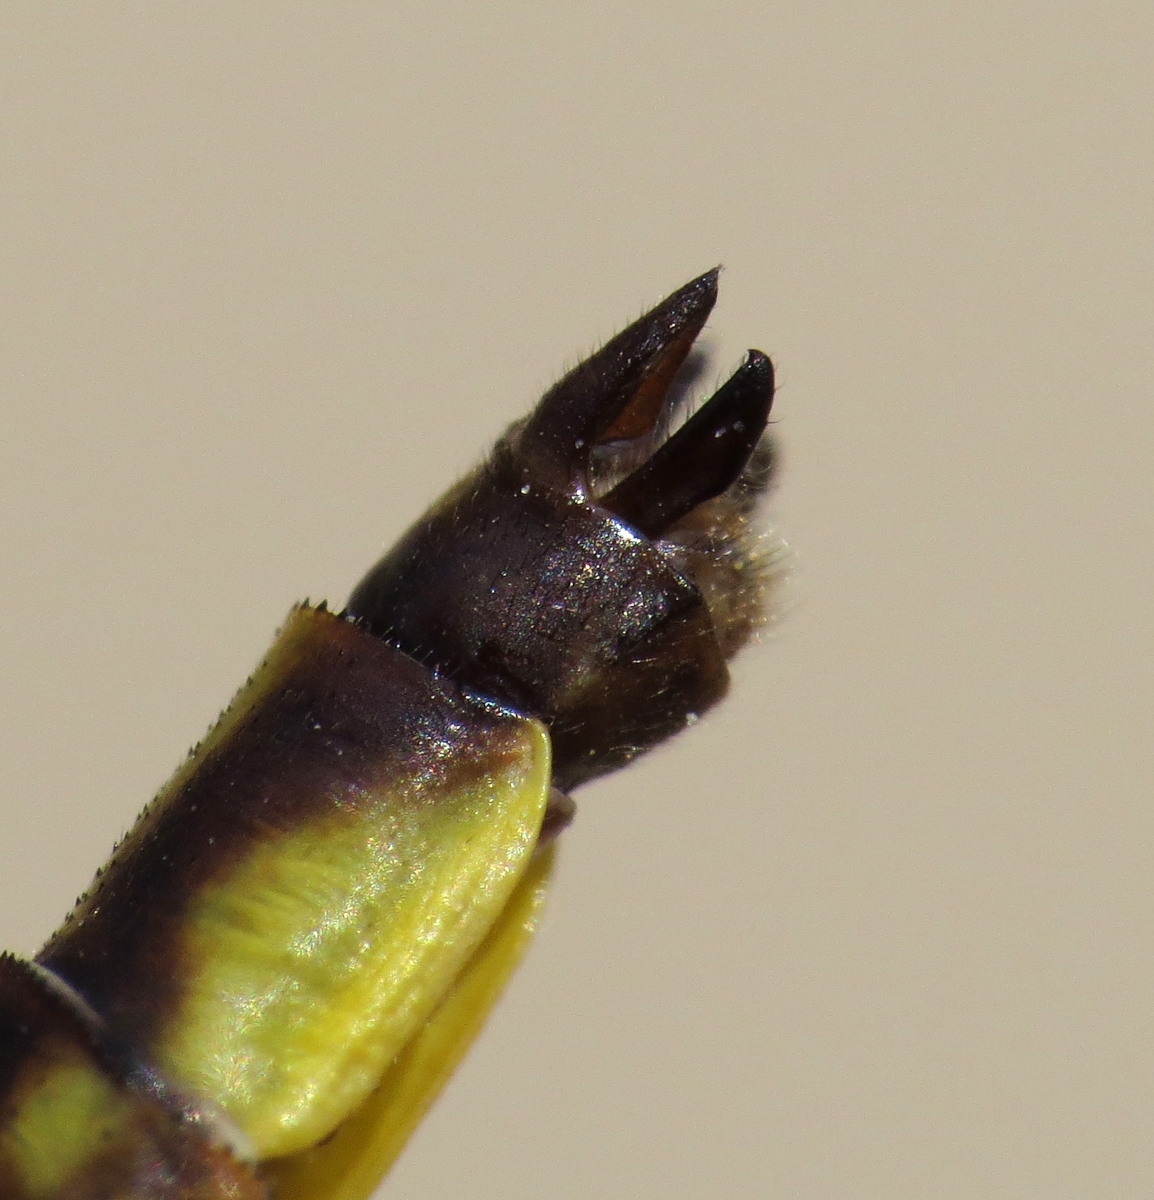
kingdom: Animalia
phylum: Arthropoda
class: Insecta
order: Odonata
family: Gomphidae
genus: Phanogomphus
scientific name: Phanogomphus exilis
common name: Lancet clubtail
